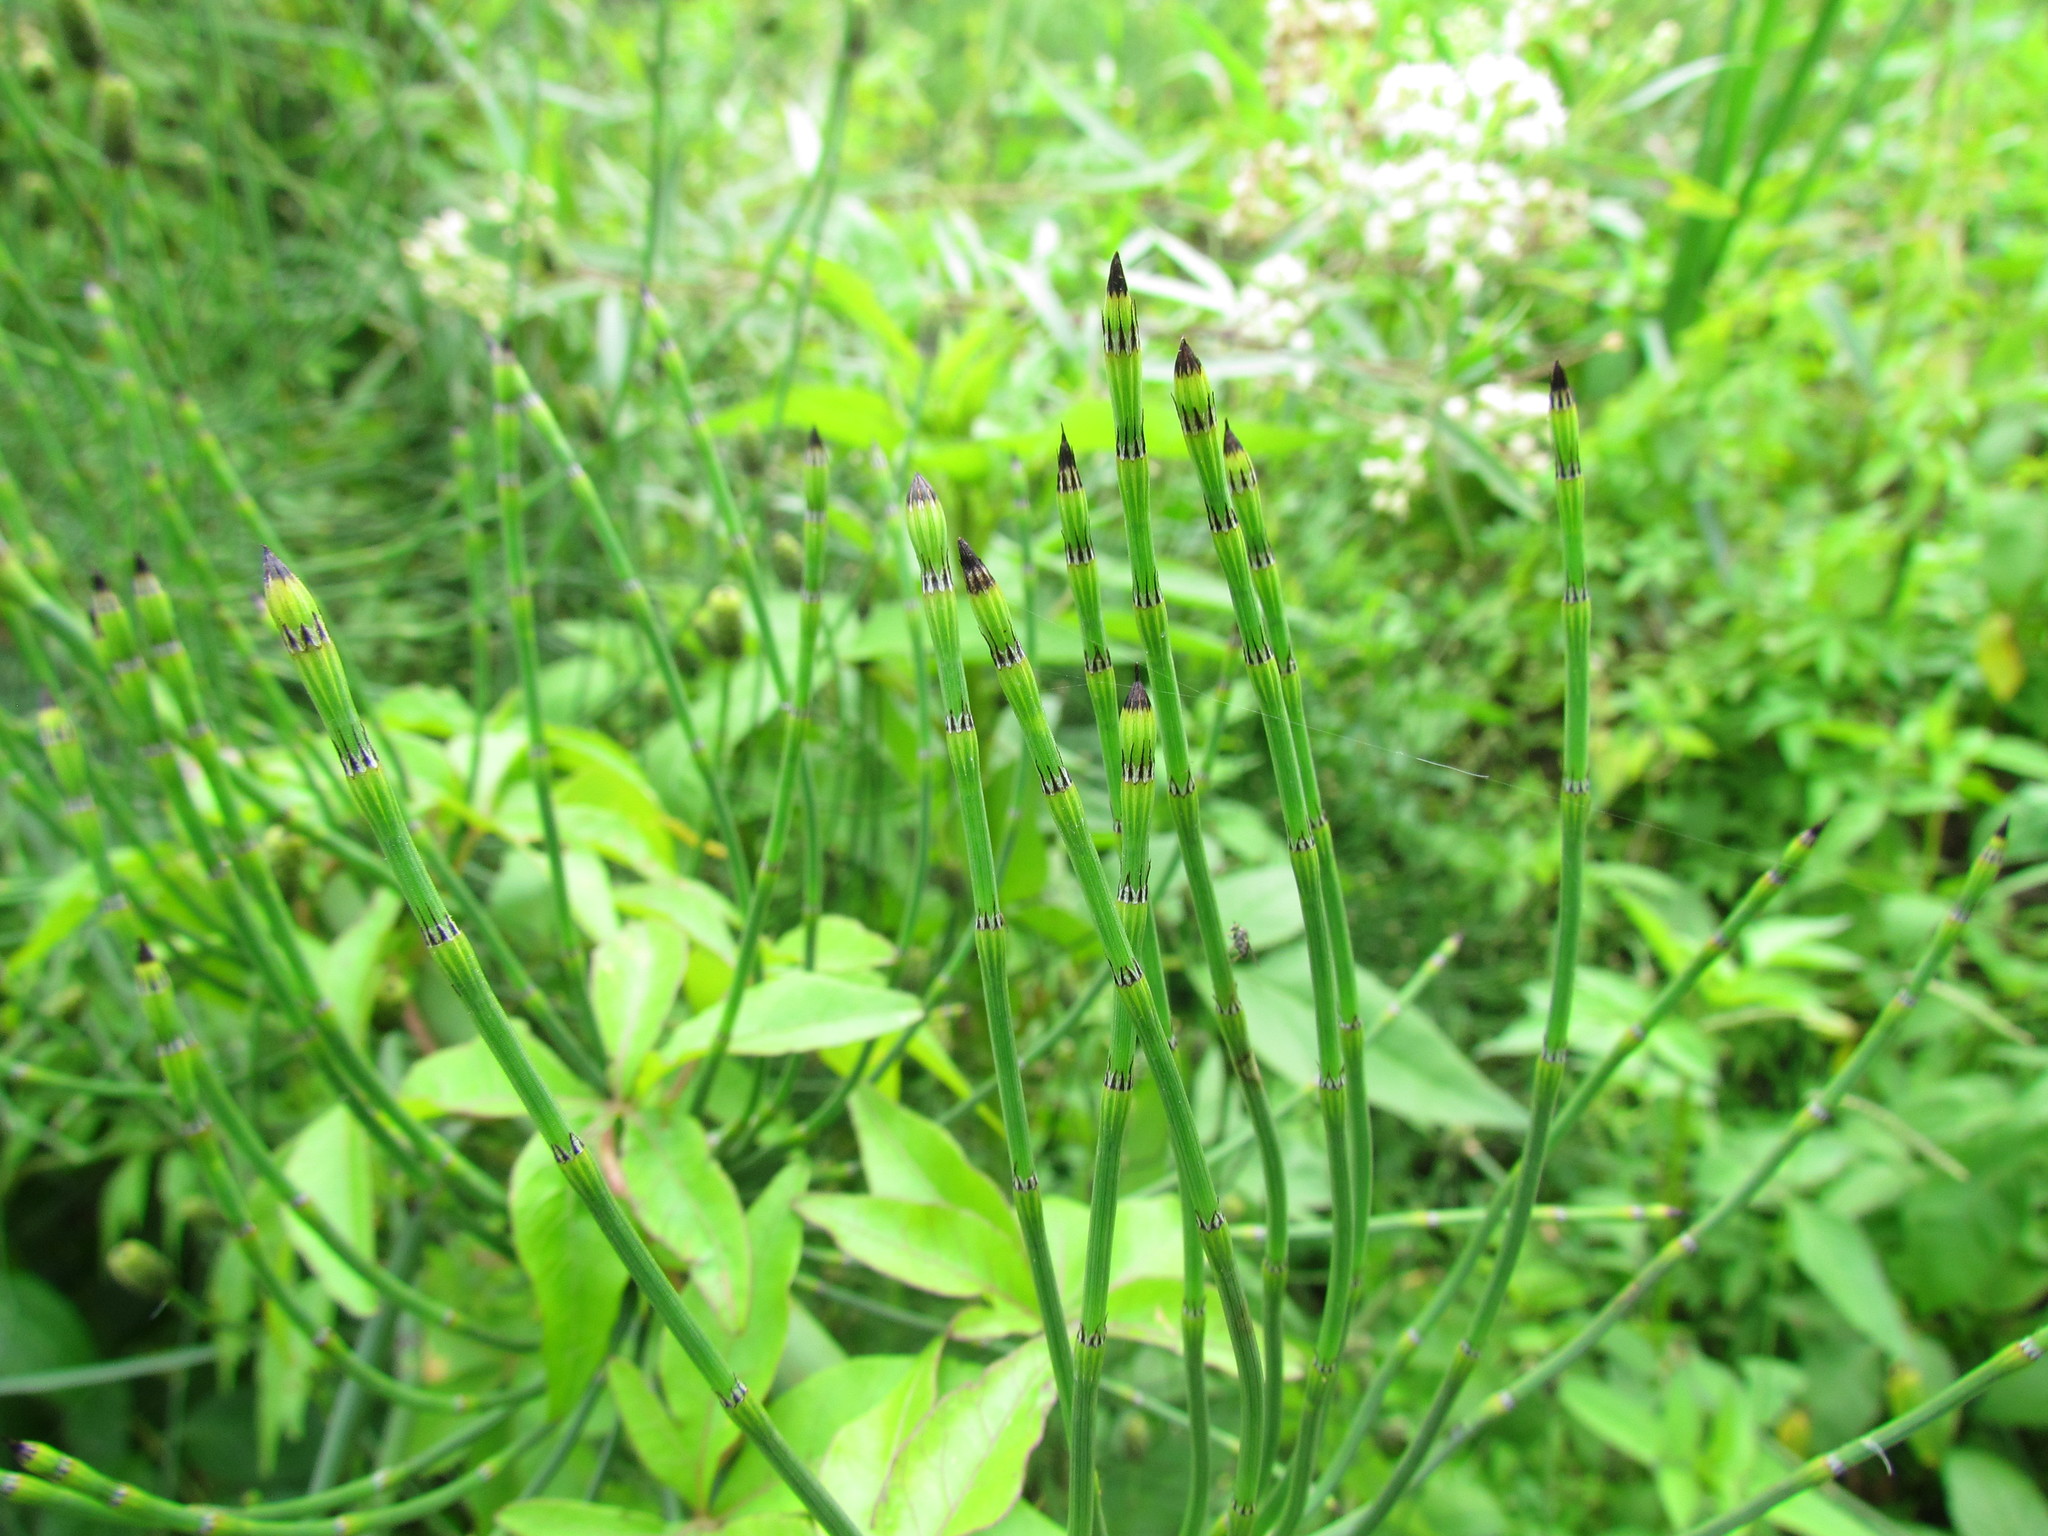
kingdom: Plantae
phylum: Tracheophyta
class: Polypodiopsida
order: Equisetales
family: Equisetaceae
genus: Equisetum
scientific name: Equisetum giganteum
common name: Giant horsetail
